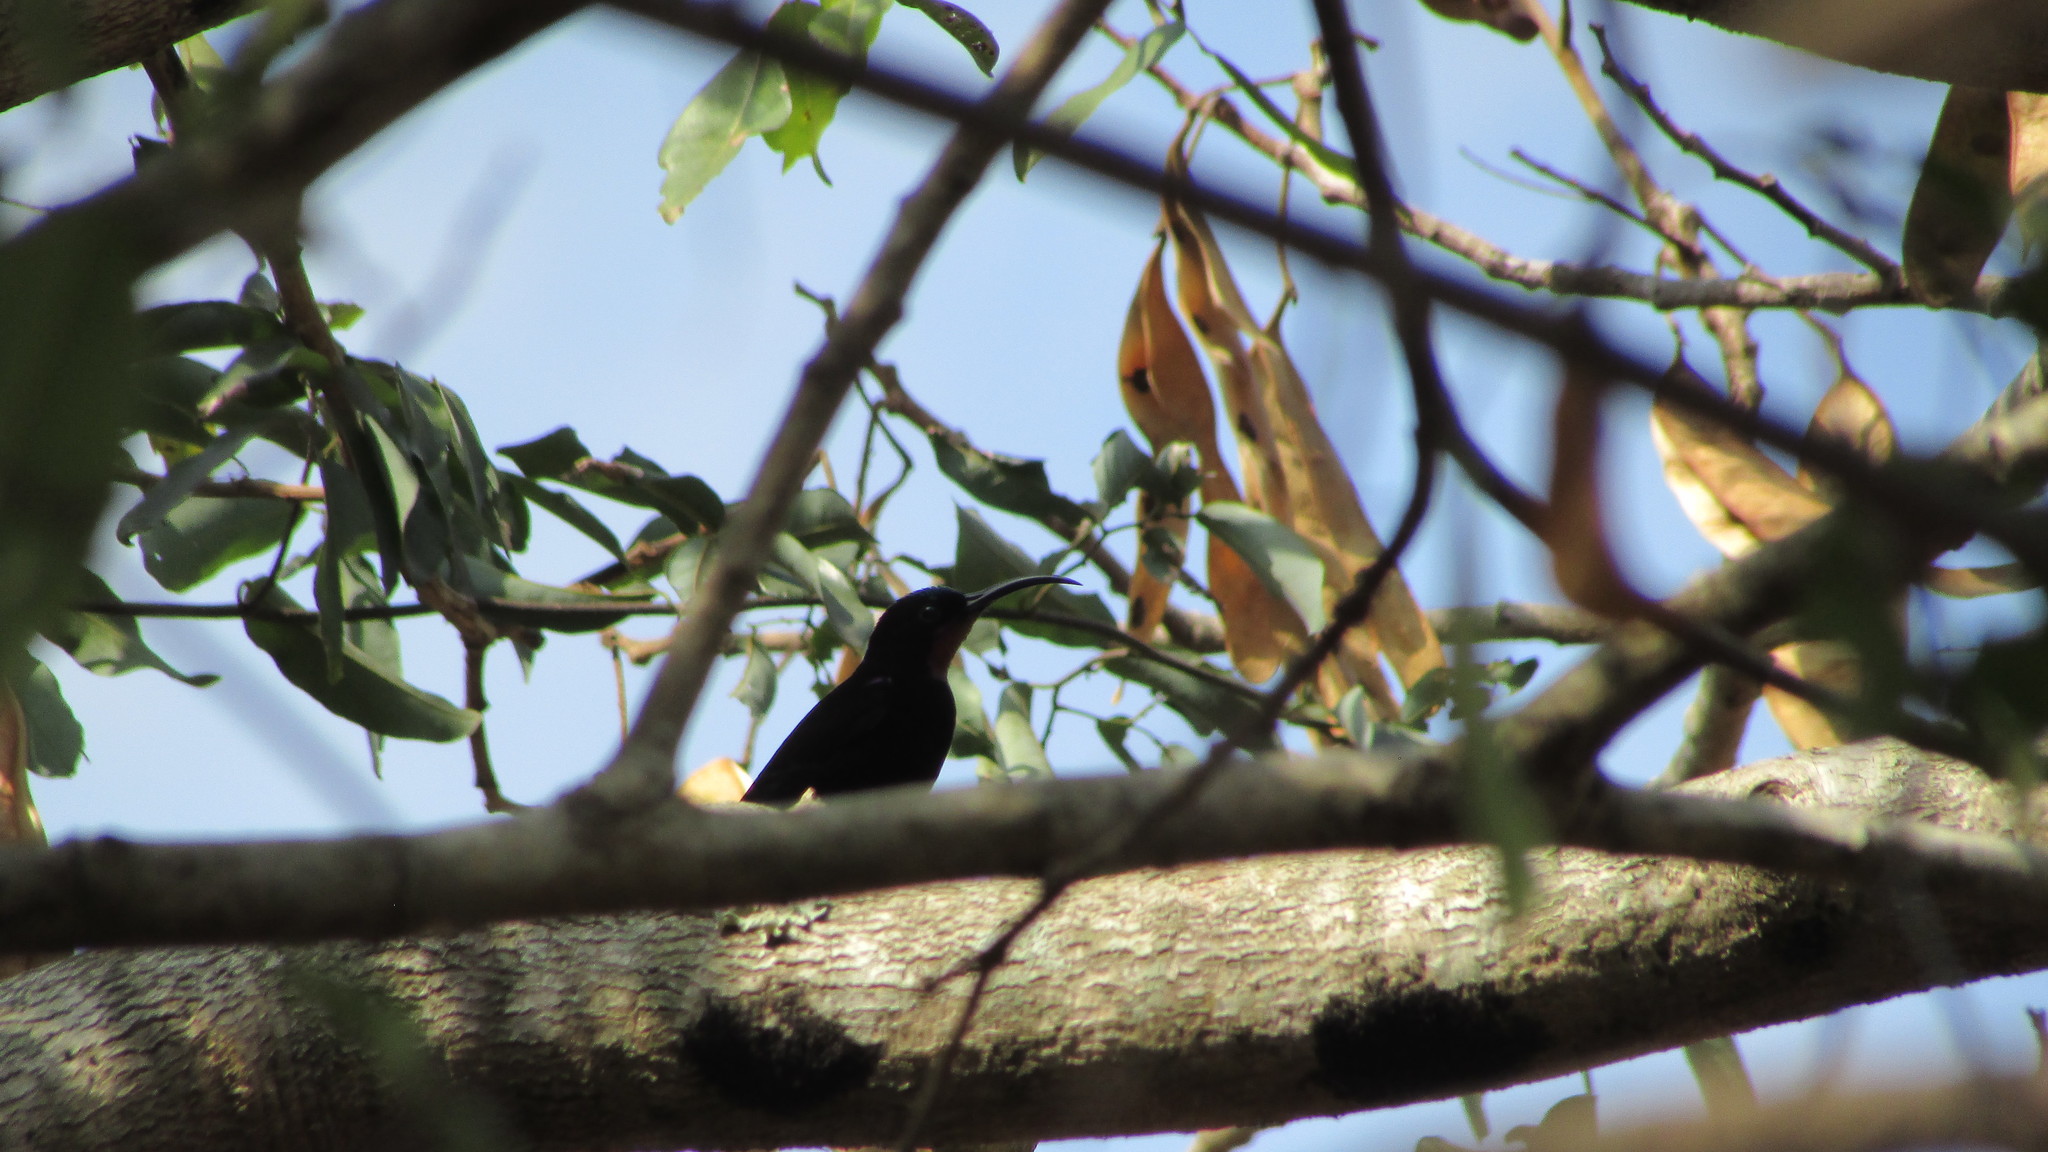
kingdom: Animalia
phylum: Chordata
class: Aves
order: Passeriformes
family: Nectariniidae
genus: Chalcomitra
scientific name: Chalcomitra amethystina
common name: Amethyst sunbird
